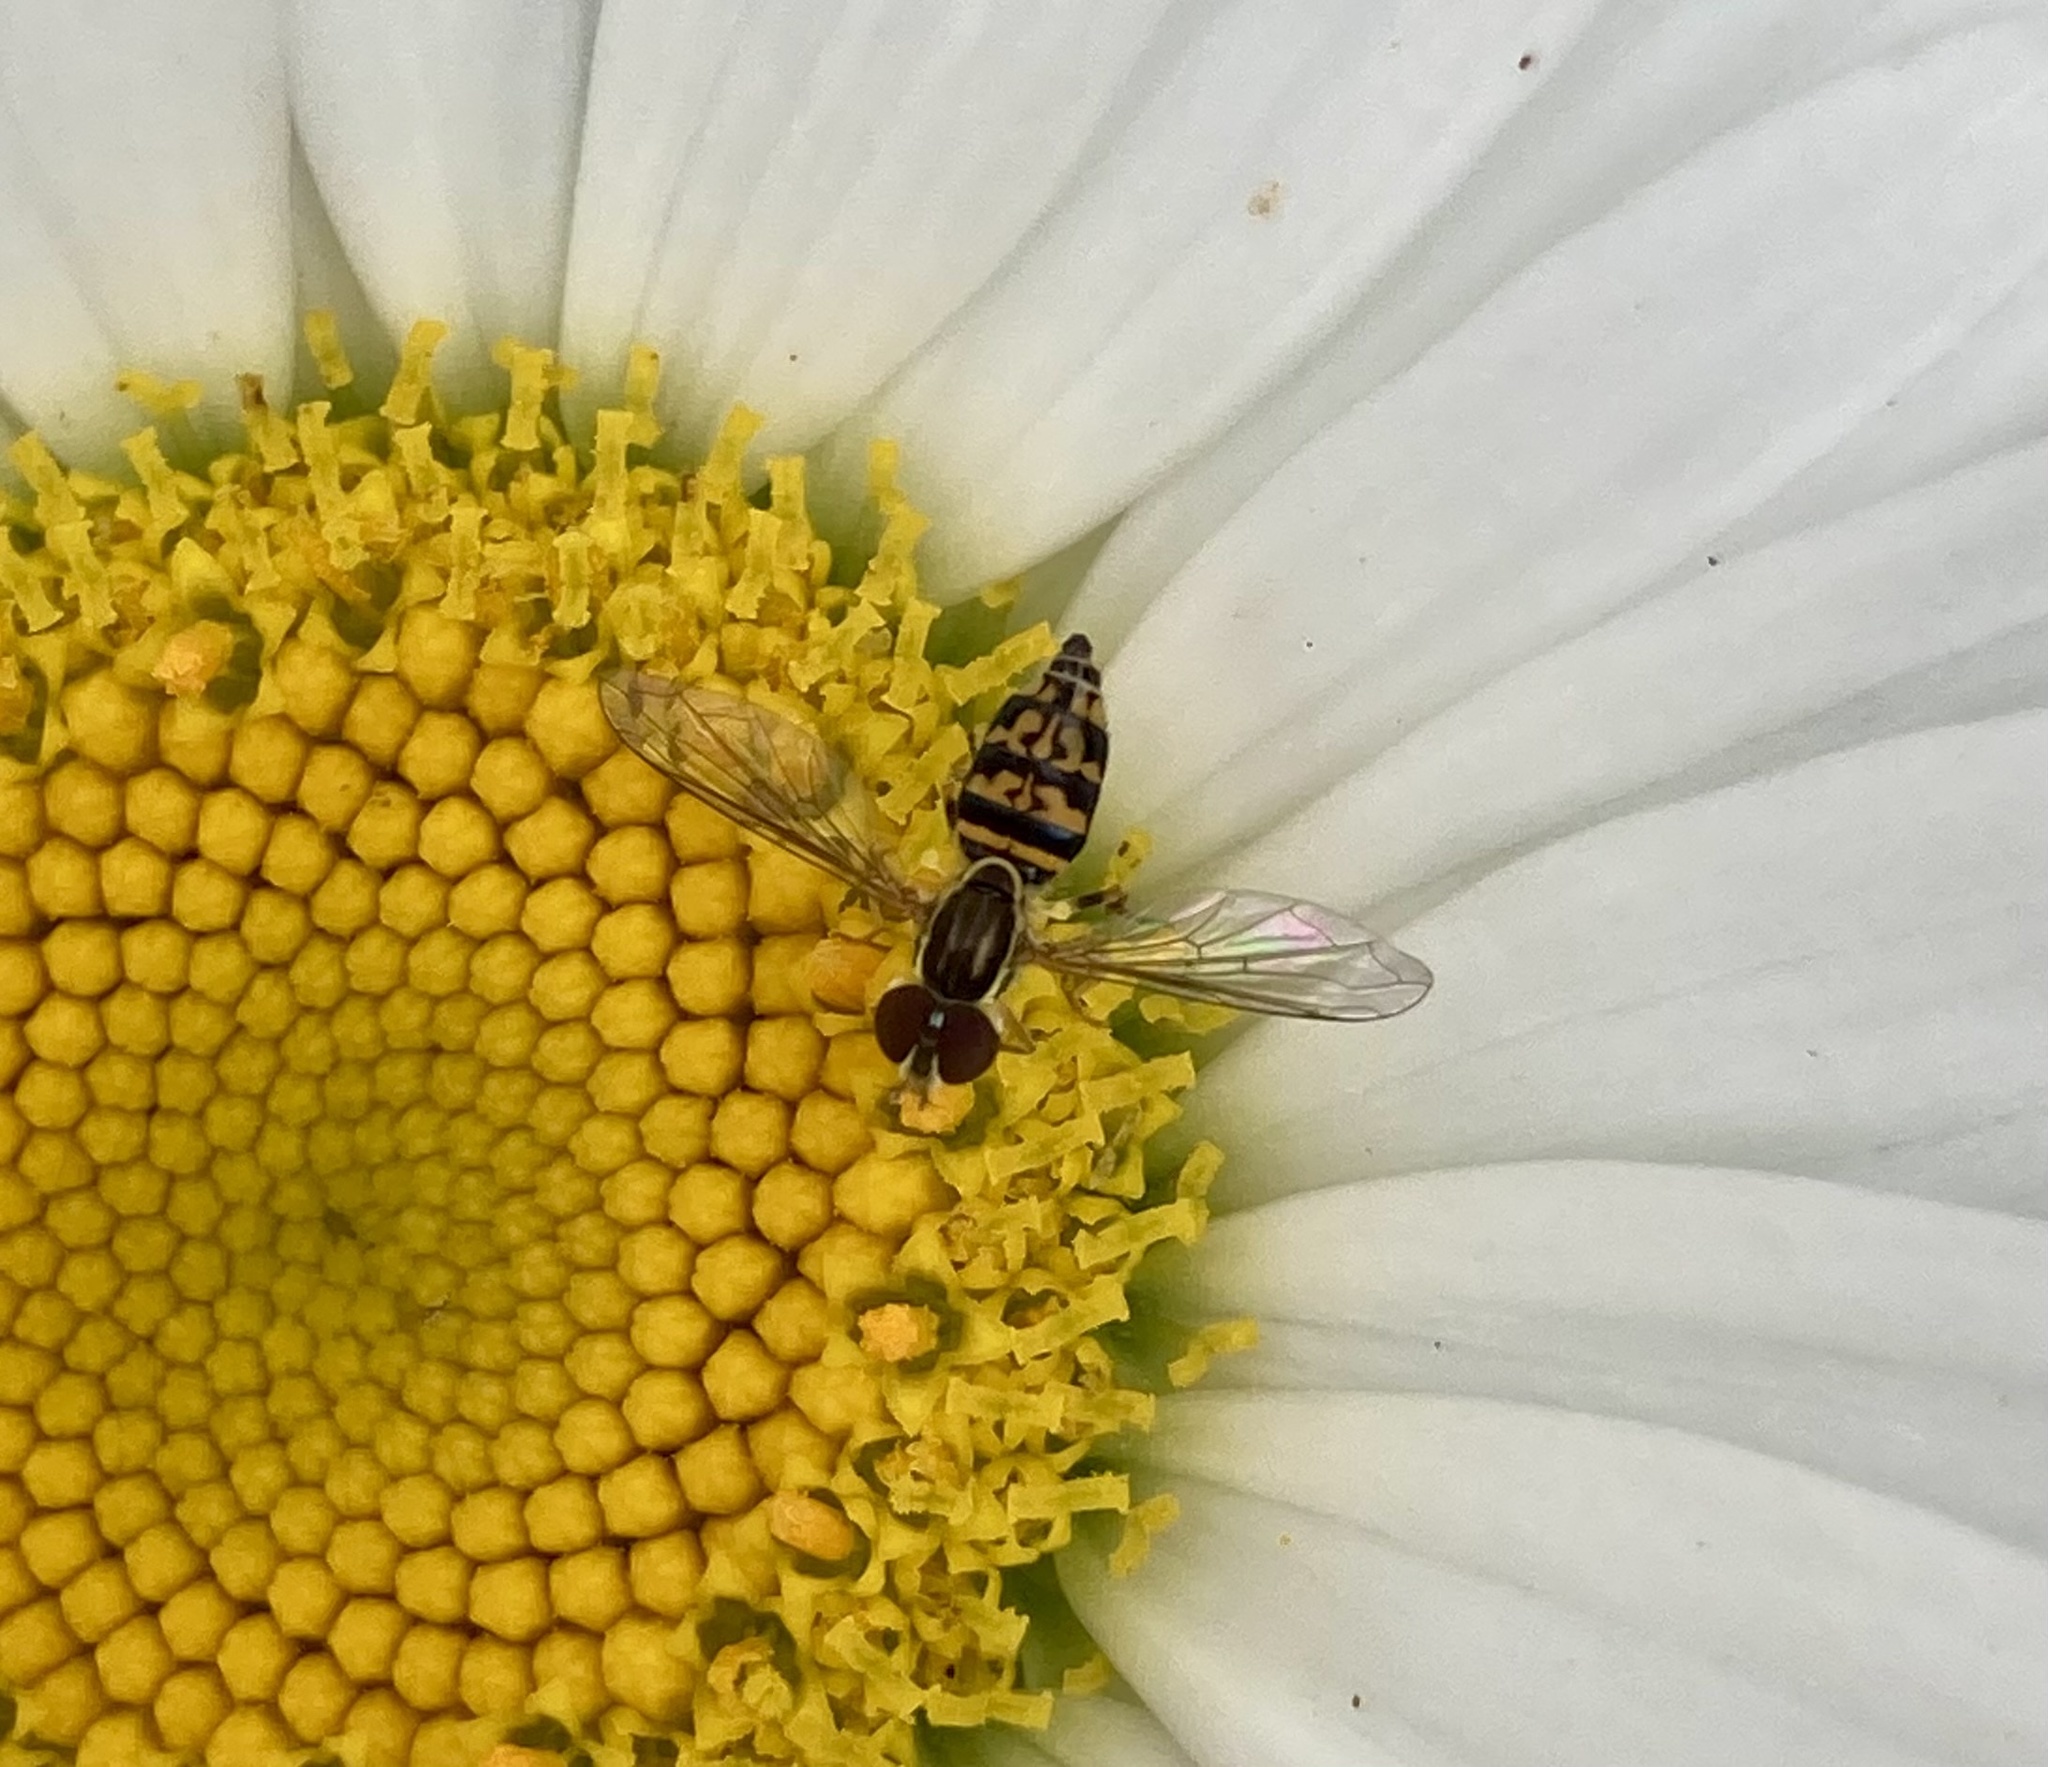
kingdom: Animalia
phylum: Arthropoda
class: Insecta
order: Diptera
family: Syrphidae
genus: Toxomerus
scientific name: Toxomerus geminatus
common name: Eastern calligrapher
